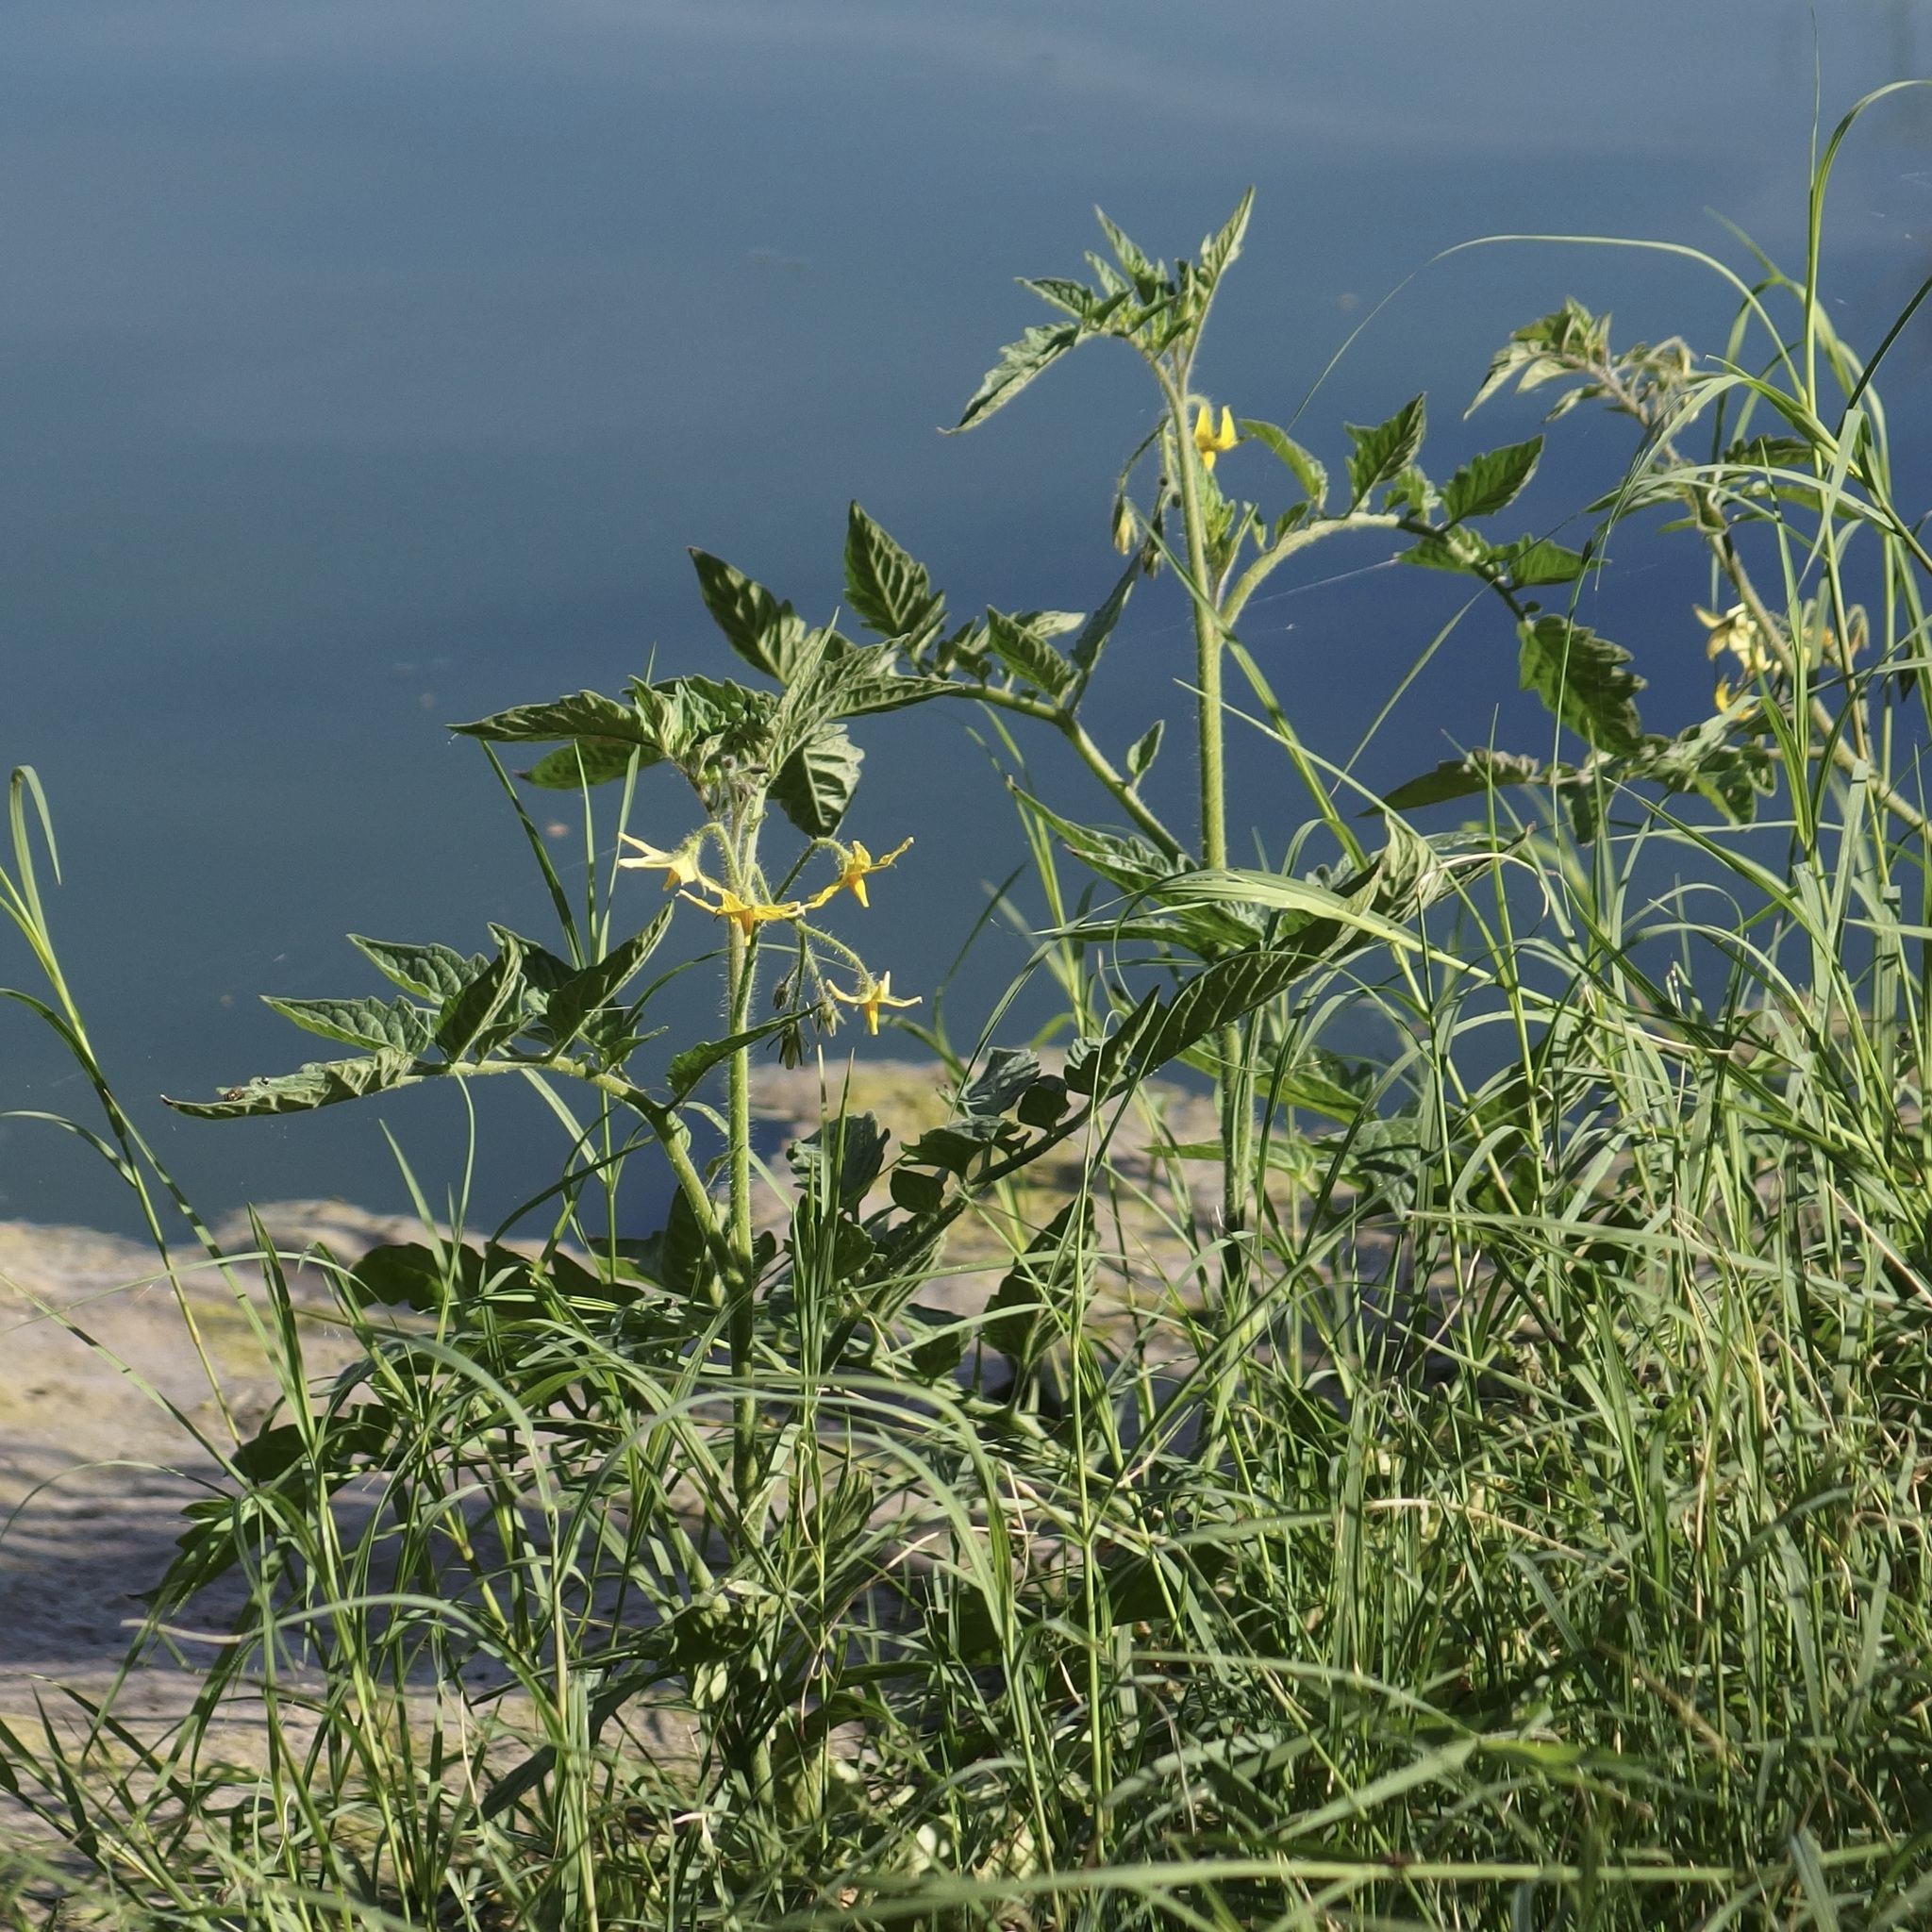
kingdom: Plantae
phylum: Tracheophyta
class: Magnoliopsida
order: Solanales
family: Solanaceae
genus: Solanum
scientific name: Solanum lycopersicum
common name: Garden tomato
